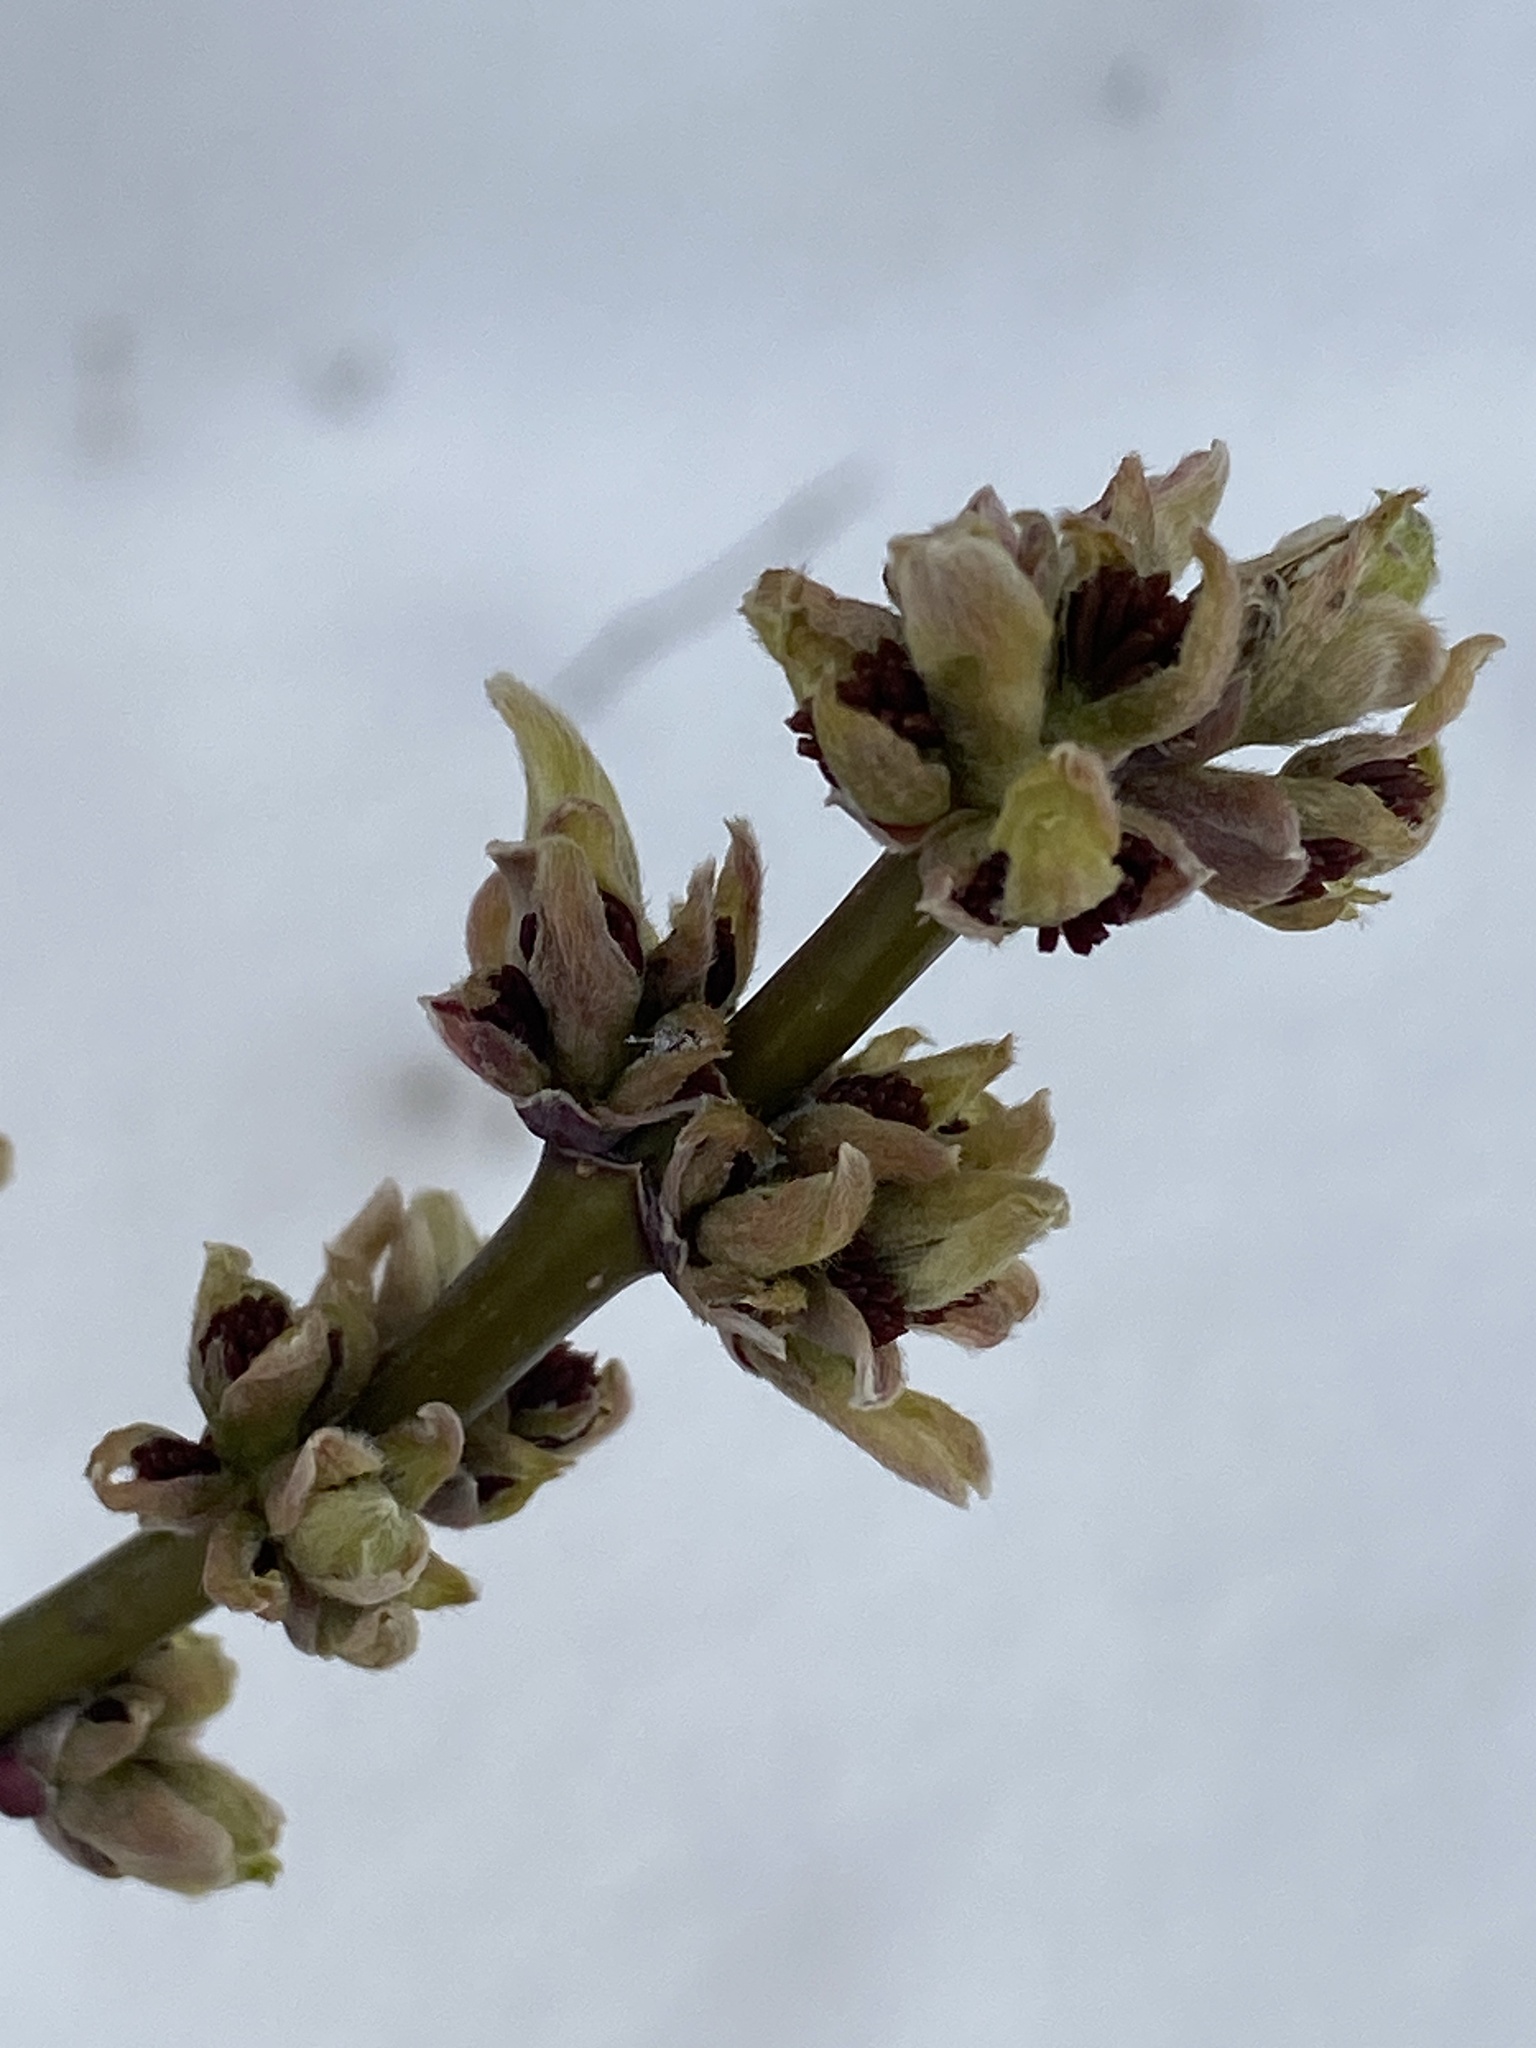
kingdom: Plantae
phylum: Tracheophyta
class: Magnoliopsida
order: Sapindales
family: Sapindaceae
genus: Acer
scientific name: Acer negundo
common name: Ashleaf maple
